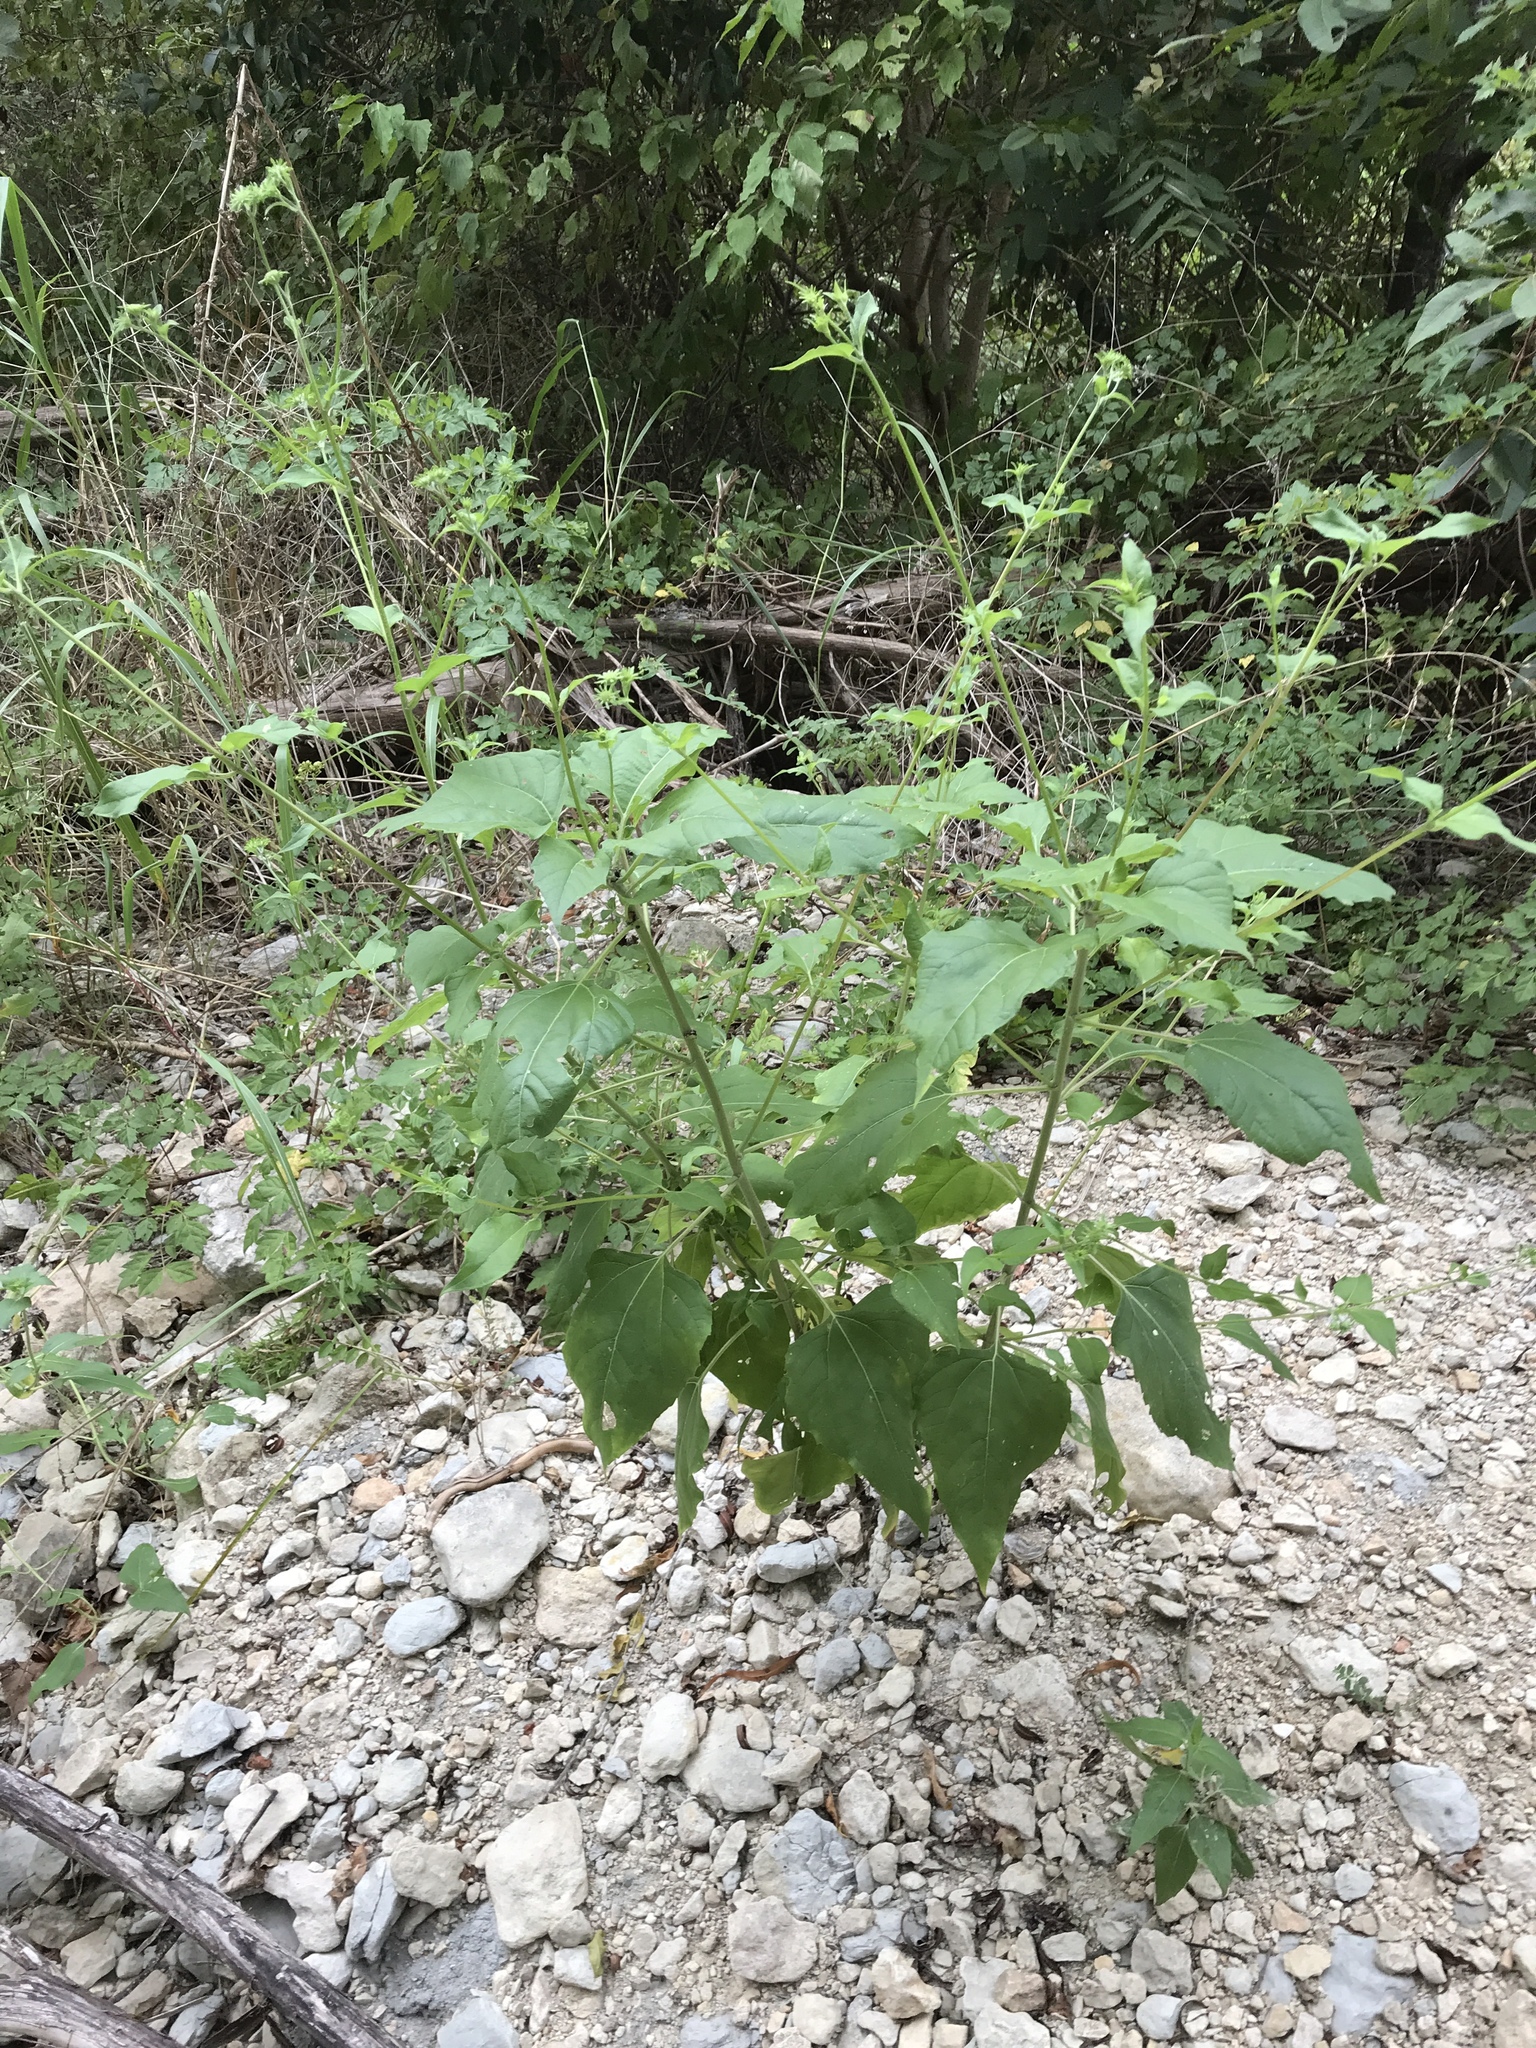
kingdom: Plantae
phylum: Tracheophyta
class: Magnoliopsida
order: Asterales
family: Asteraceae
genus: Viguiera
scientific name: Viguiera dentata
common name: Toothleaf
